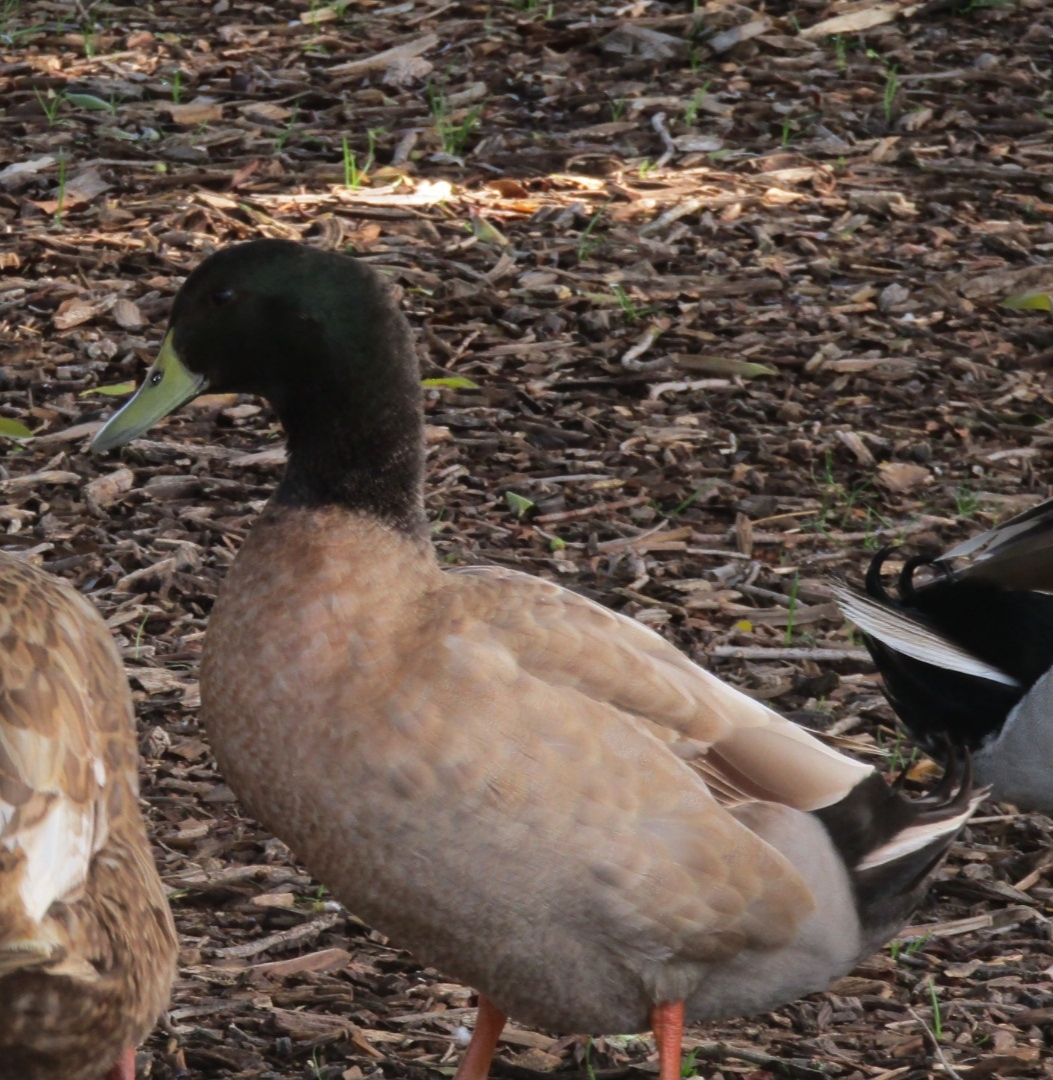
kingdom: Animalia
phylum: Chordata
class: Aves
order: Anseriformes
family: Anatidae
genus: Anas
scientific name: Anas platyrhynchos
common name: Mallard
